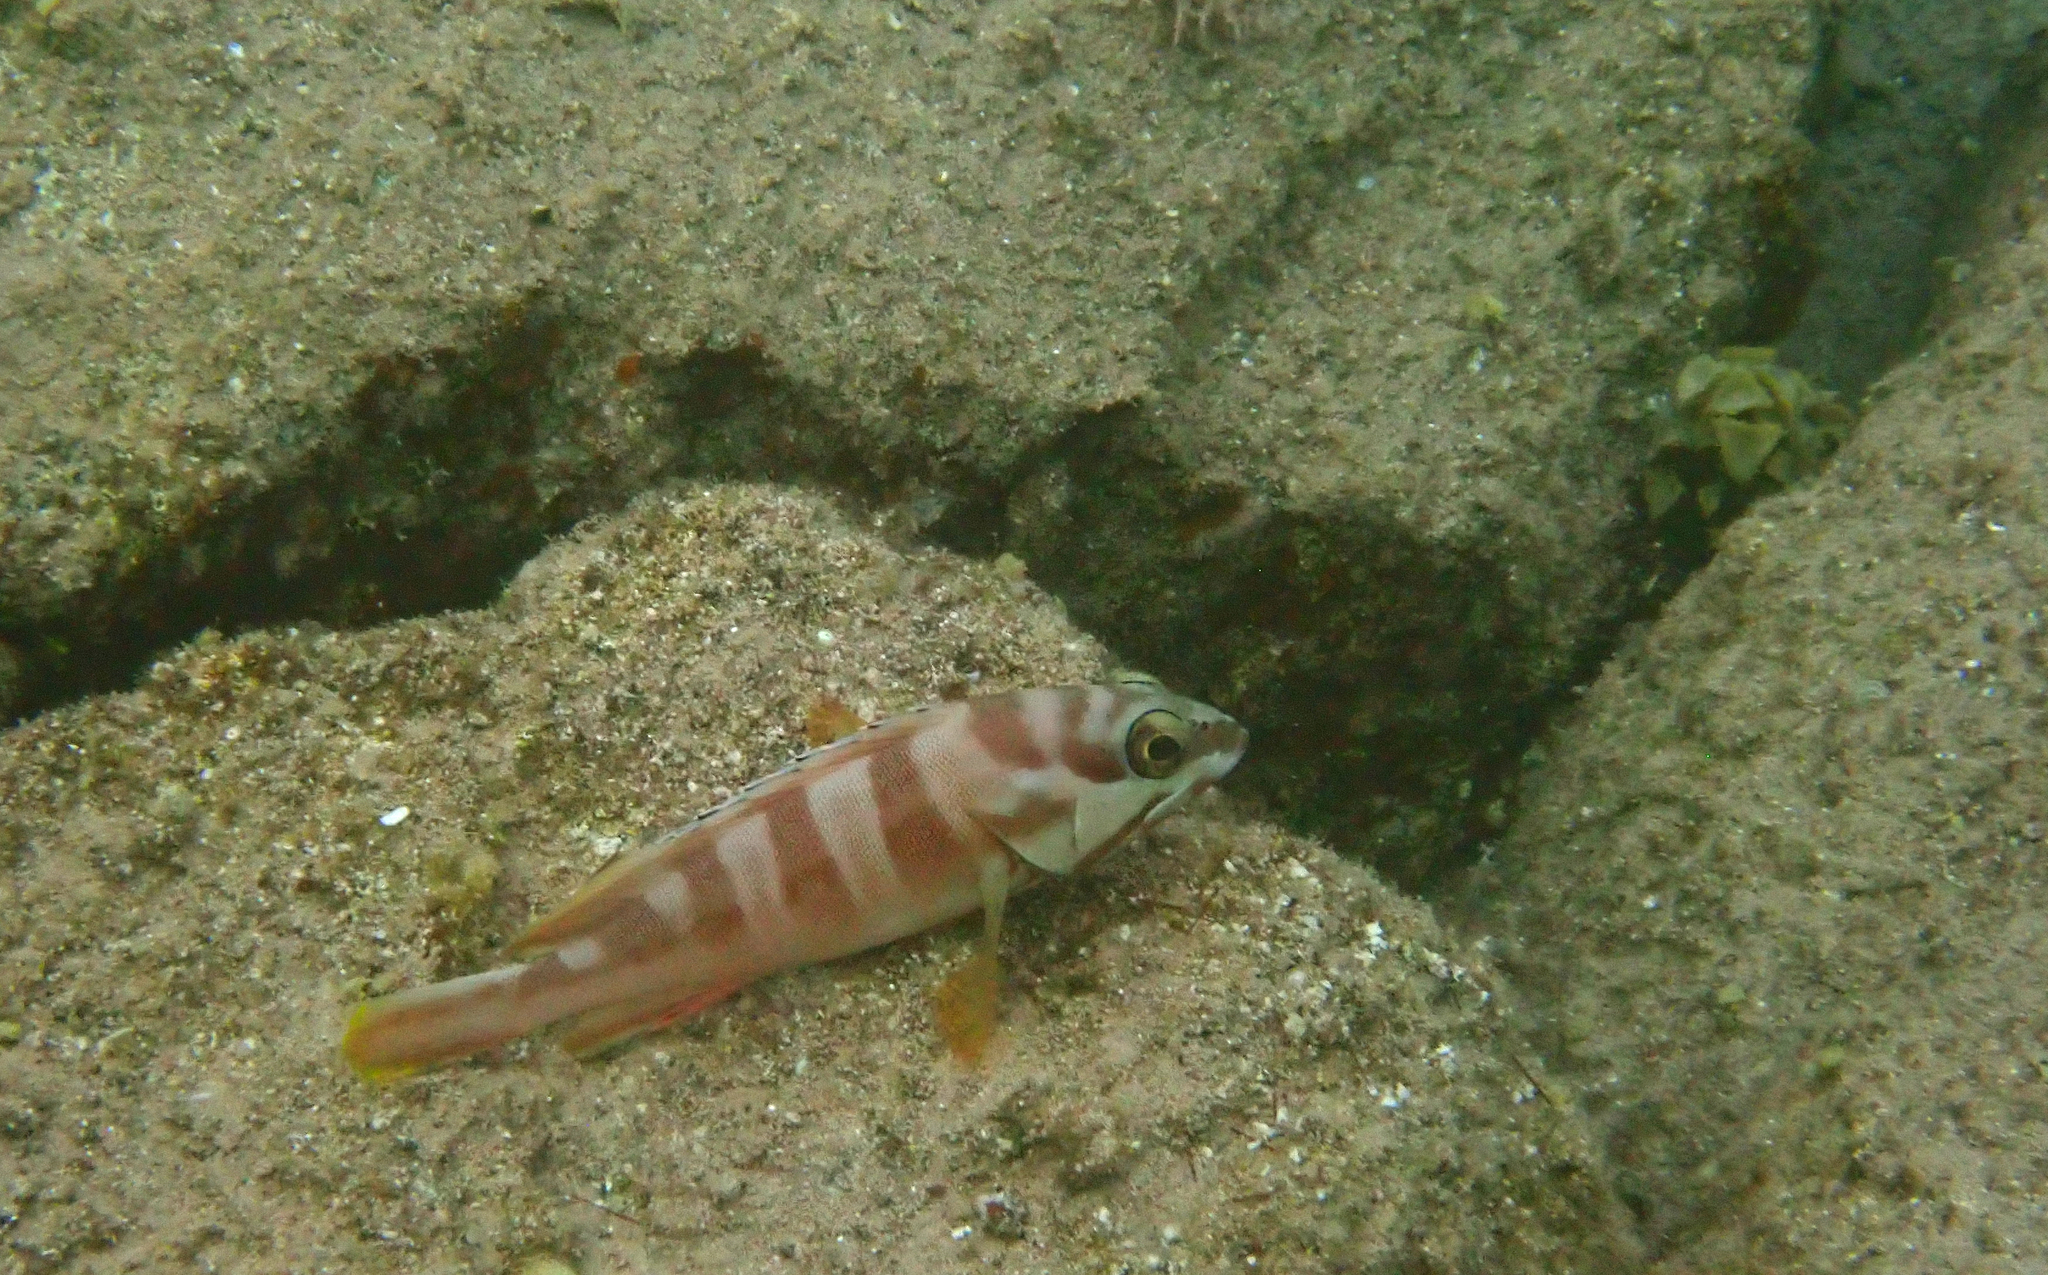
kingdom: Animalia
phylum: Chordata
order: Perciformes
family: Serranidae
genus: Epinephelus
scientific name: Epinephelus fasciatus
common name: Blacktip grouper
